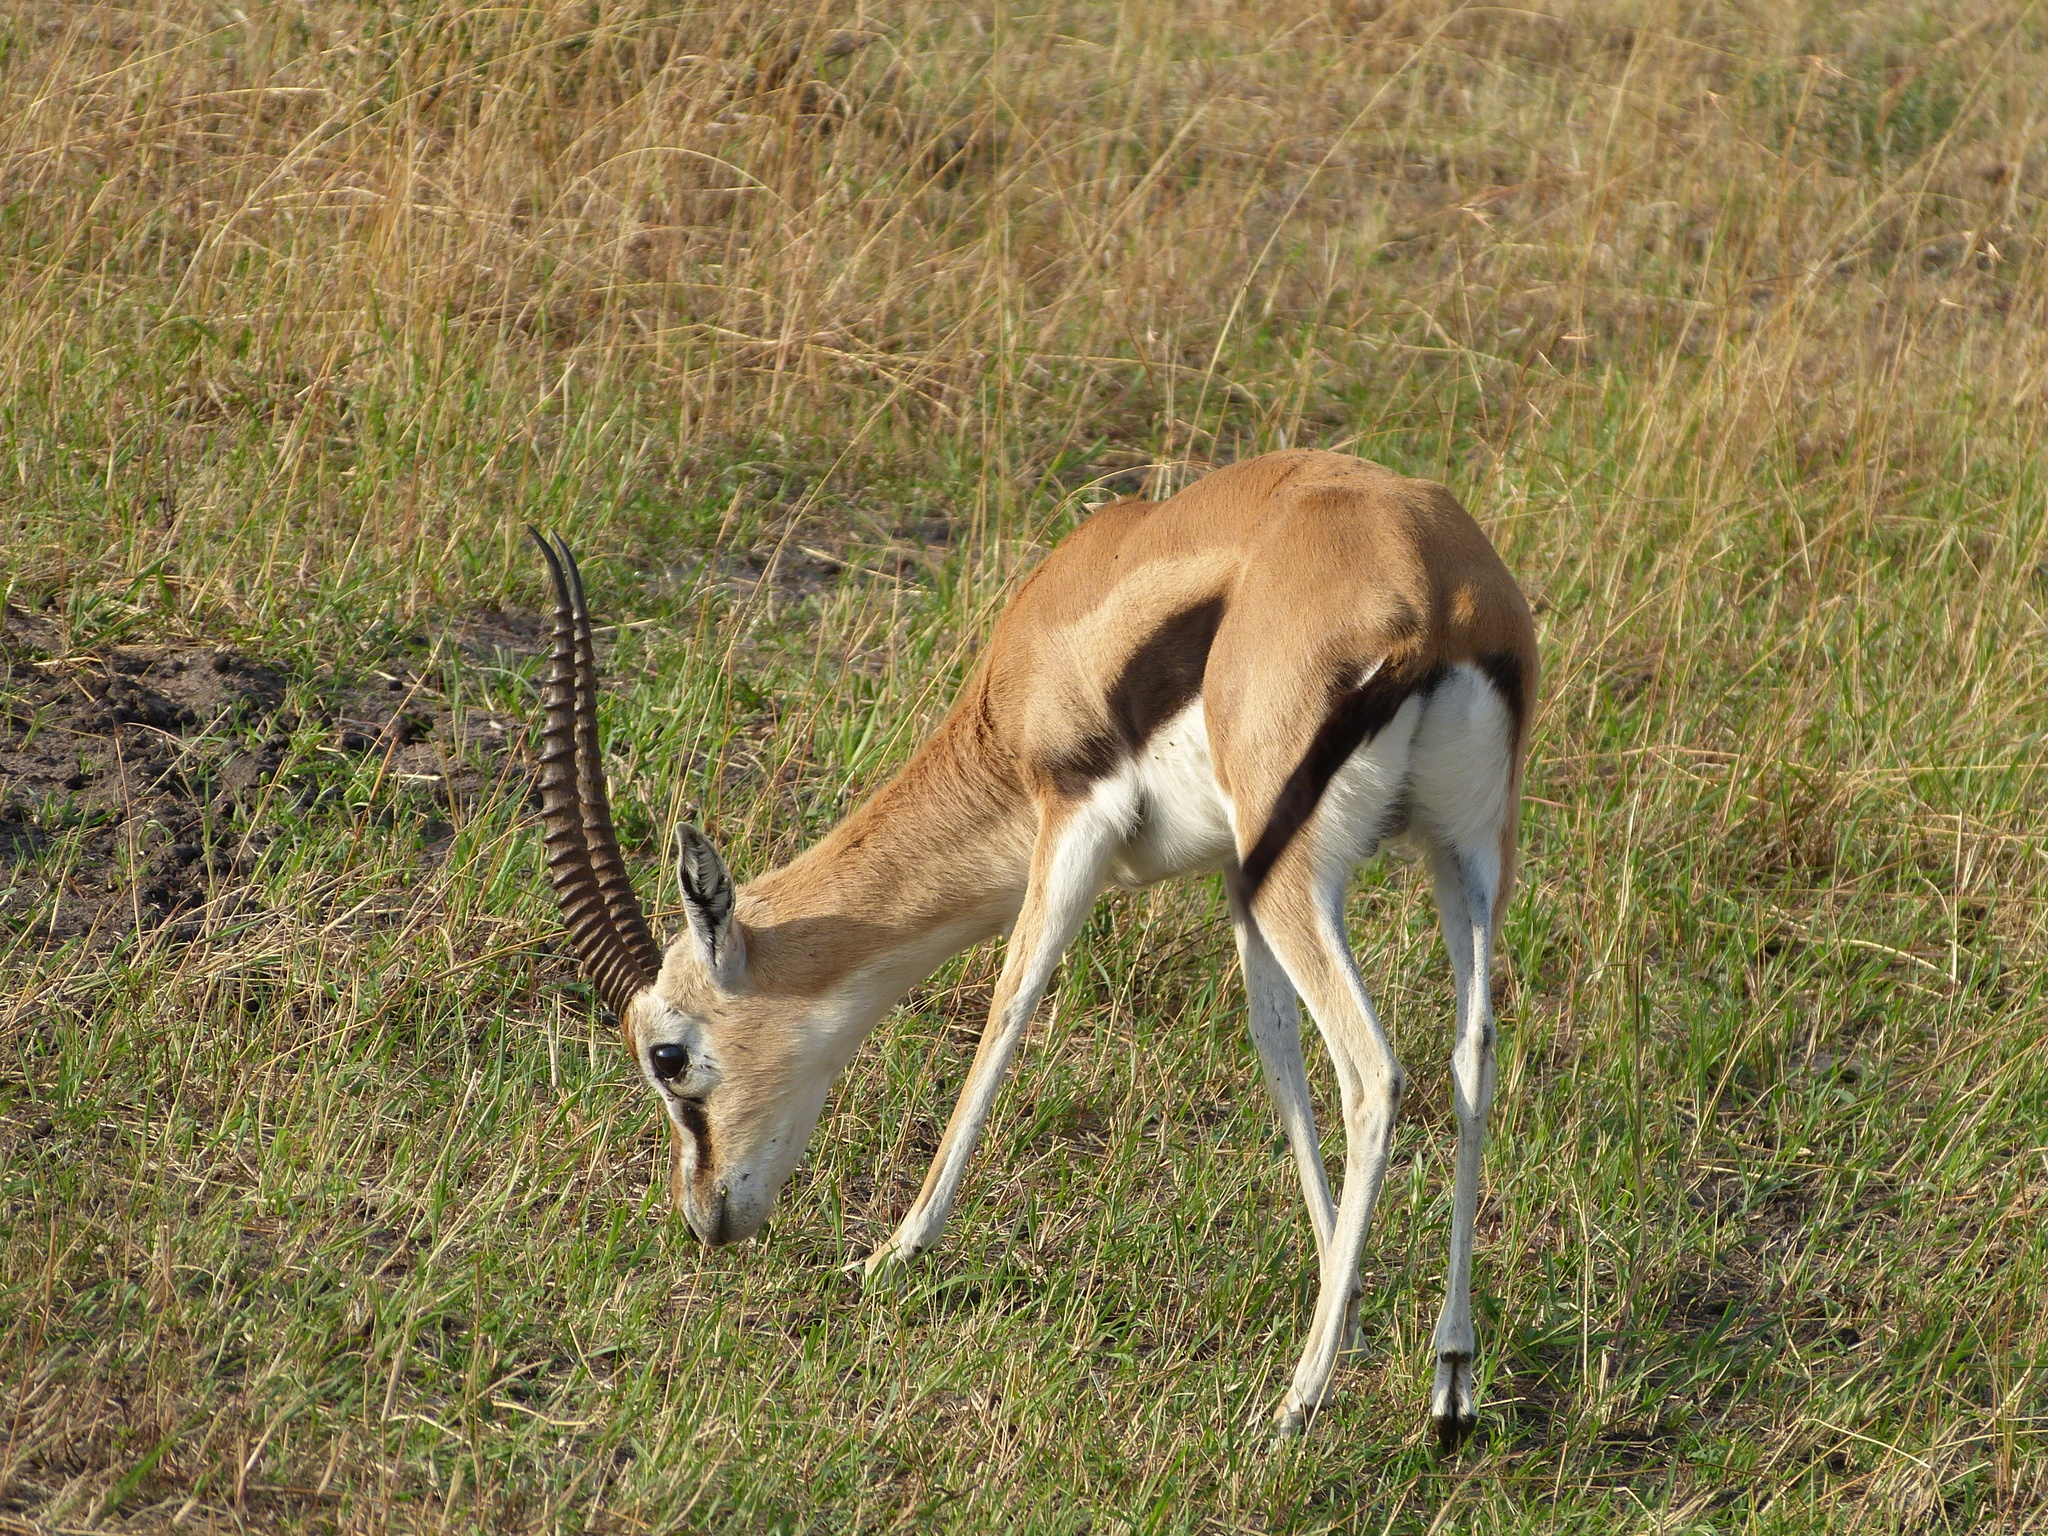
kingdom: Animalia
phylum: Chordata
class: Mammalia
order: Artiodactyla
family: Bovidae
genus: Eudorcas
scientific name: Eudorcas thomsonii
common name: Thomson's gazelle
